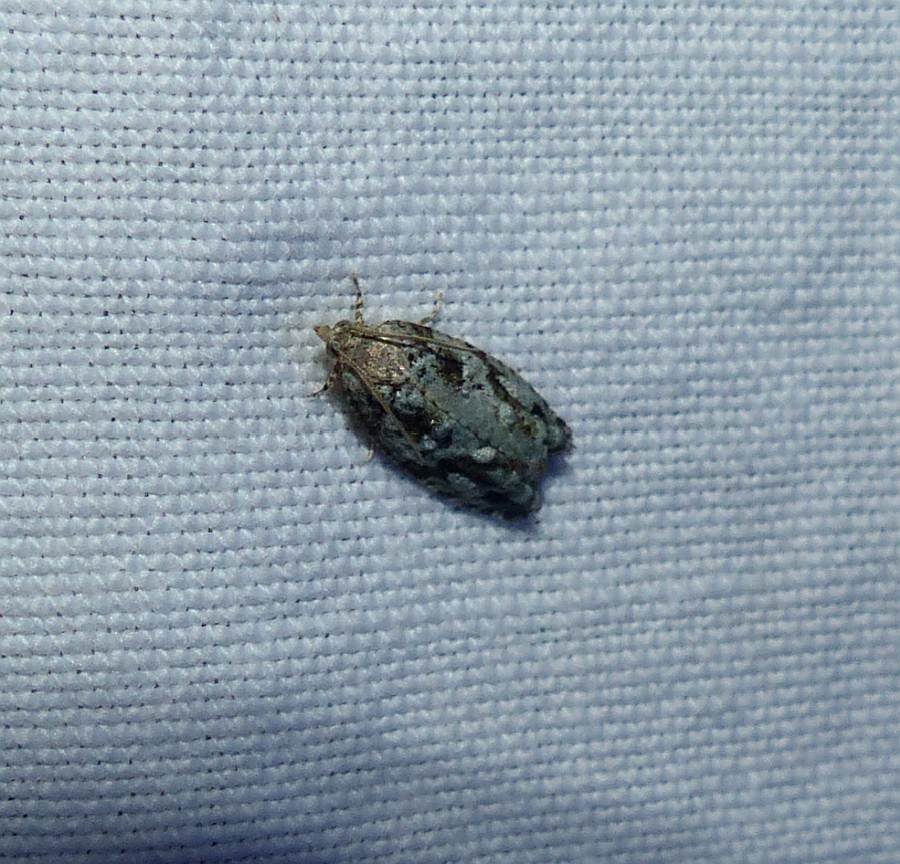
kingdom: Animalia
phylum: Arthropoda
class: Insecta
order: Lepidoptera
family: Tortricidae
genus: Proteoteras
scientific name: Proteoteras moffatiana
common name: Maple bud borer moth
